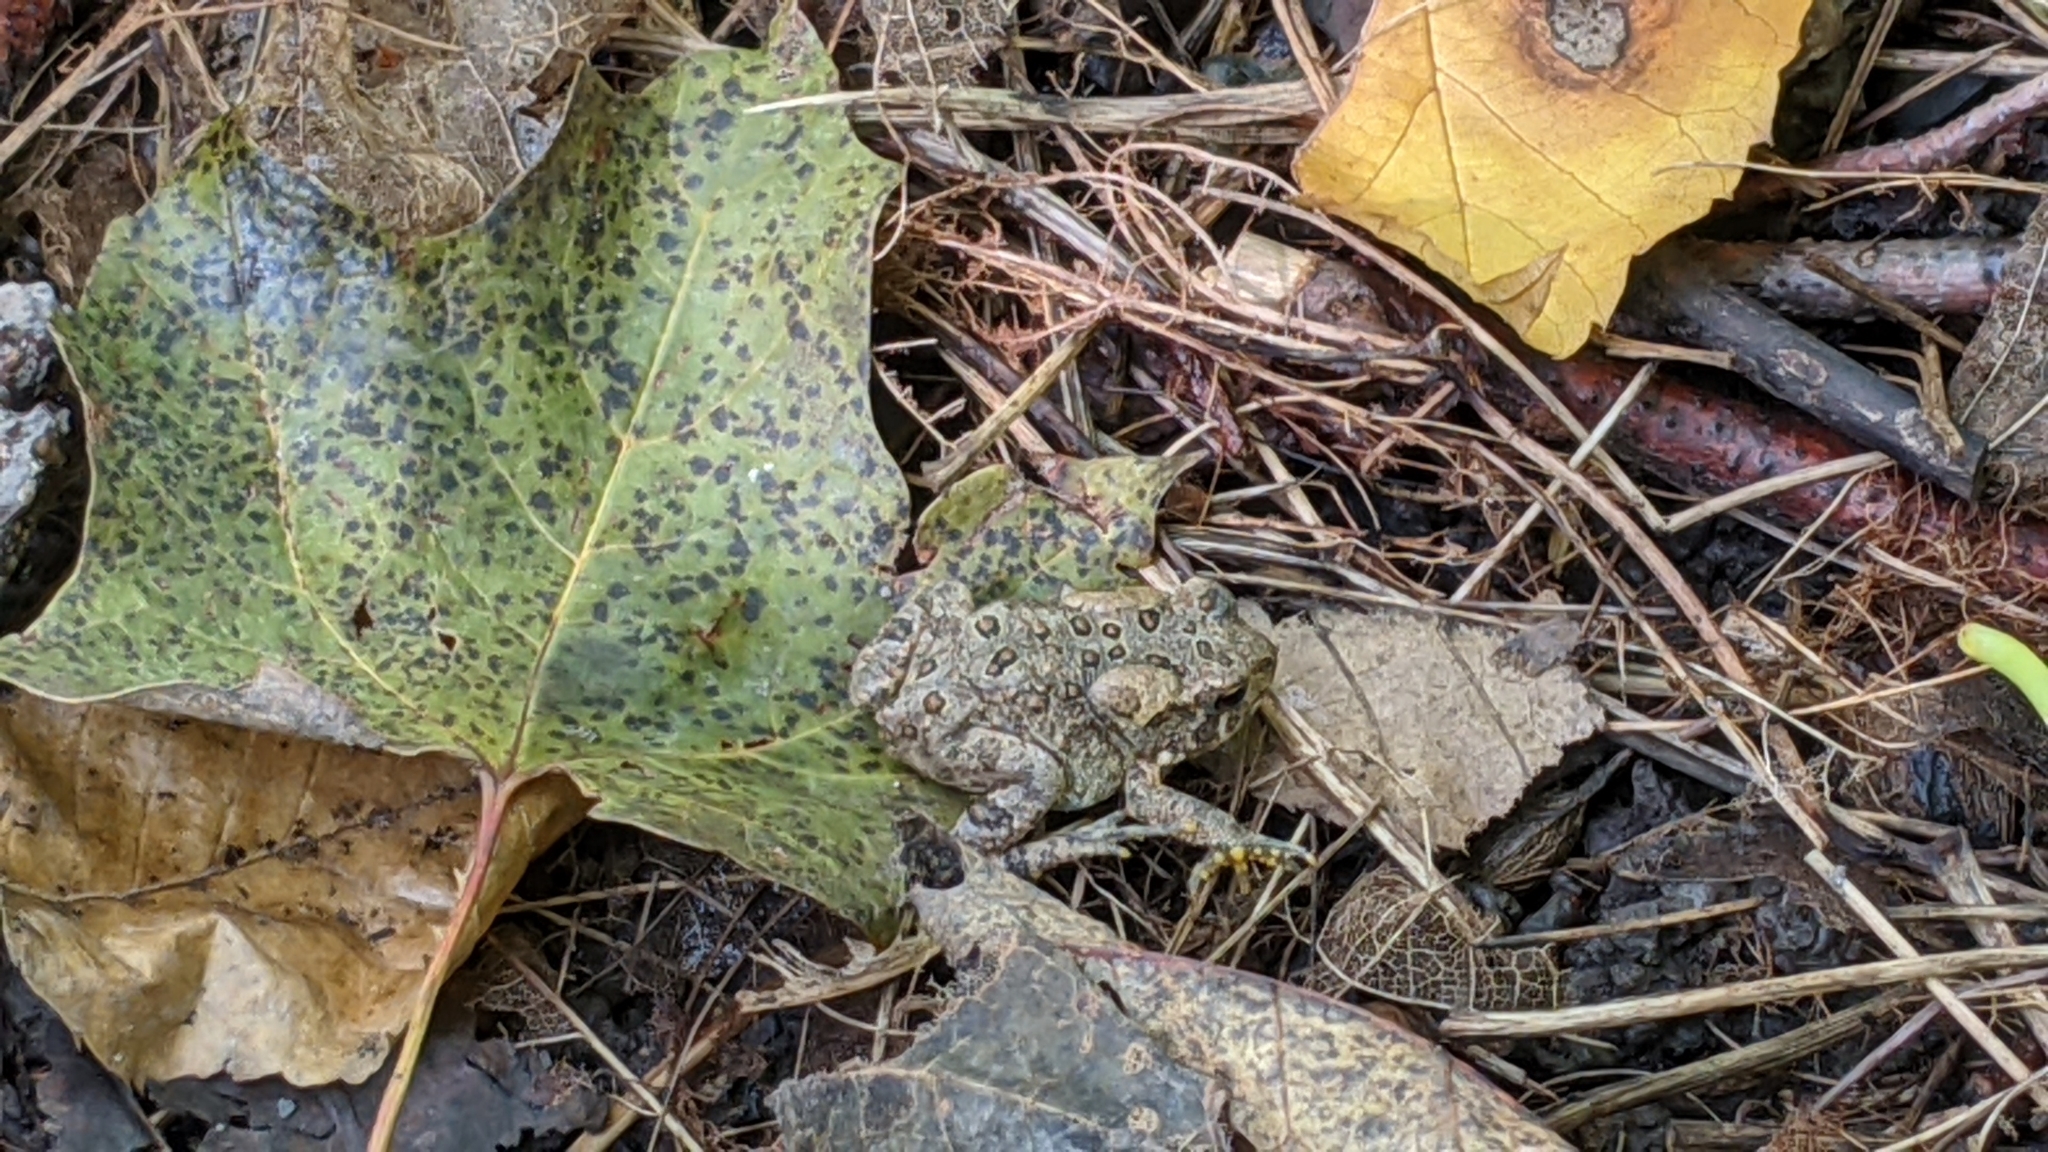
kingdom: Animalia
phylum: Chordata
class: Amphibia
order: Anura
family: Bufonidae
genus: Anaxyrus
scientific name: Anaxyrus americanus
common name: American toad
